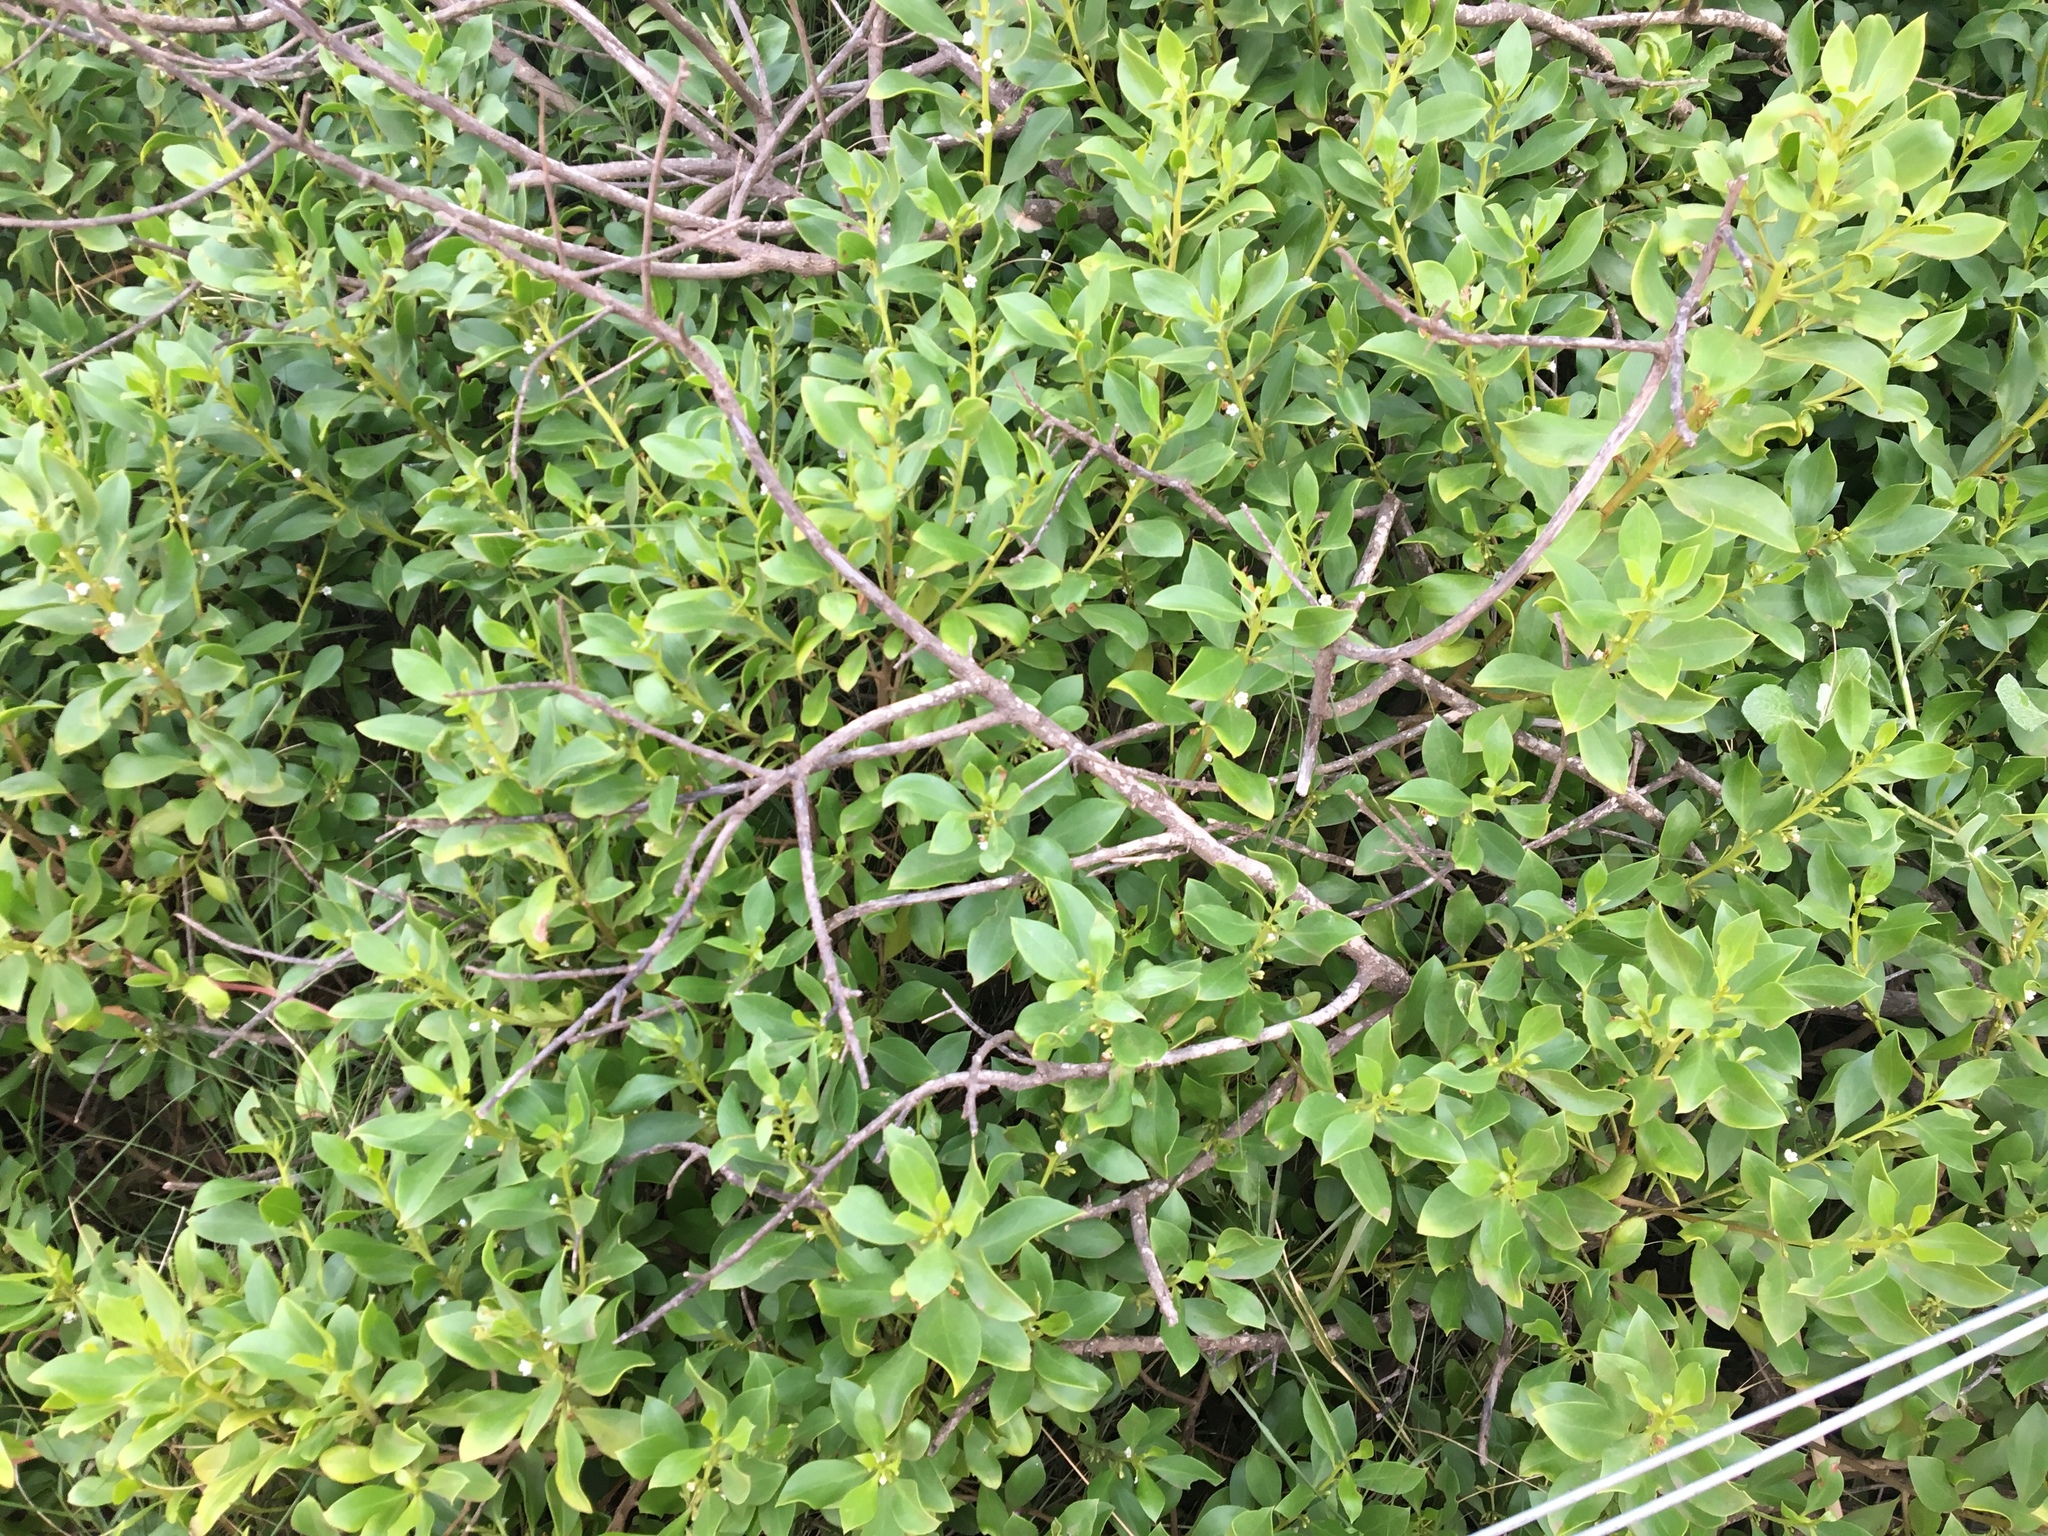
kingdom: Plantae
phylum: Tracheophyta
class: Magnoliopsida
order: Lamiales
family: Scrophulariaceae
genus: Myoporum
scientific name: Myoporum boninense
